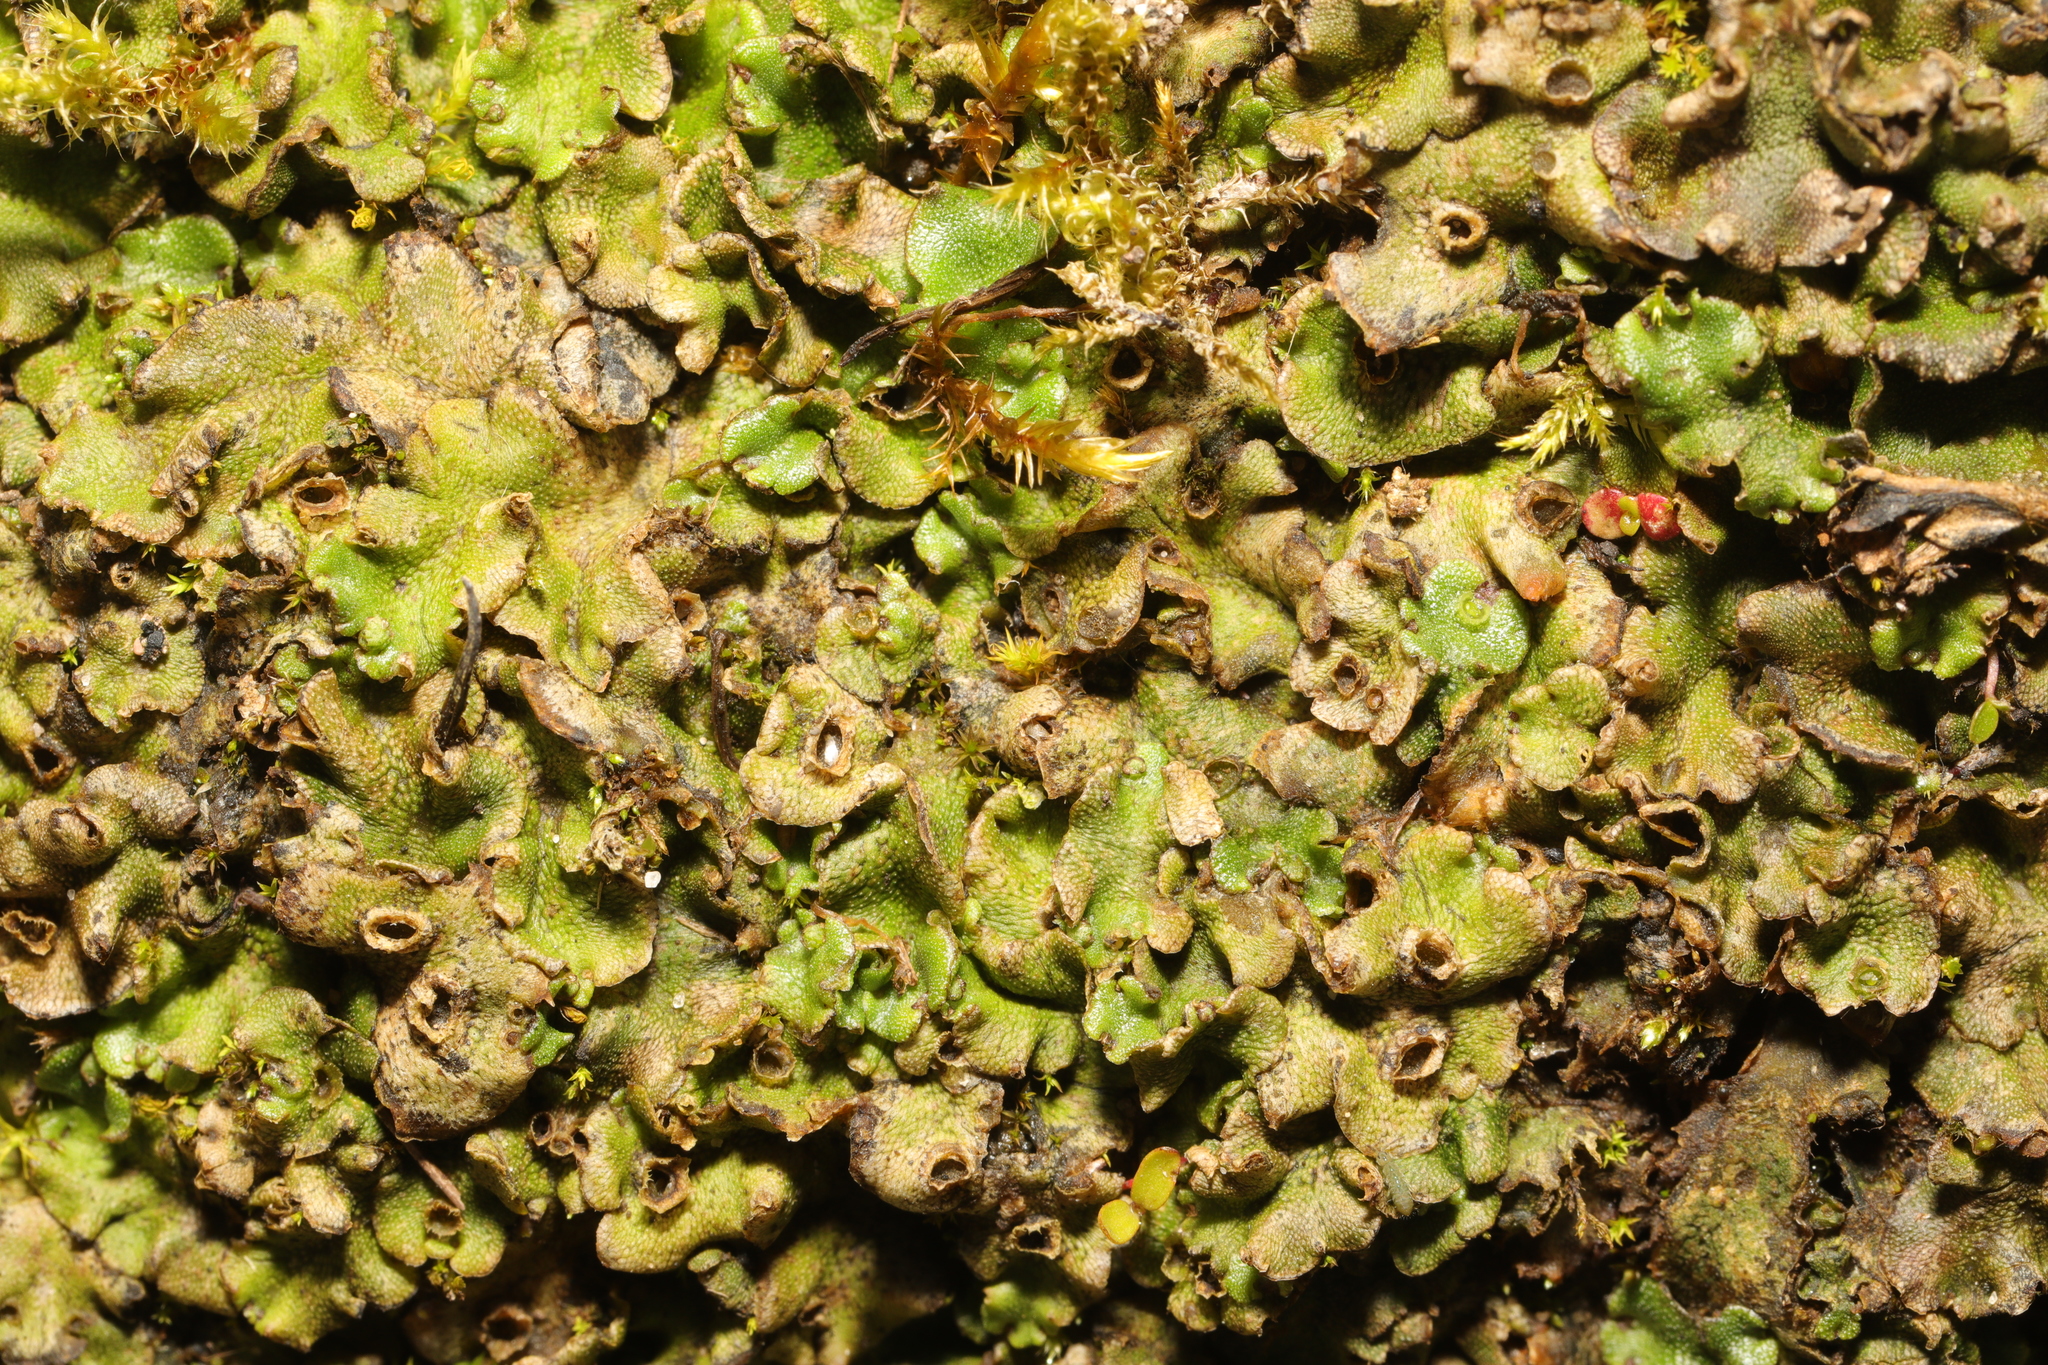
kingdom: Plantae
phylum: Marchantiophyta
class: Marchantiopsida
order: Marchantiales
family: Marchantiaceae
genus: Marchantia
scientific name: Marchantia polymorpha
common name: Common liverwort
